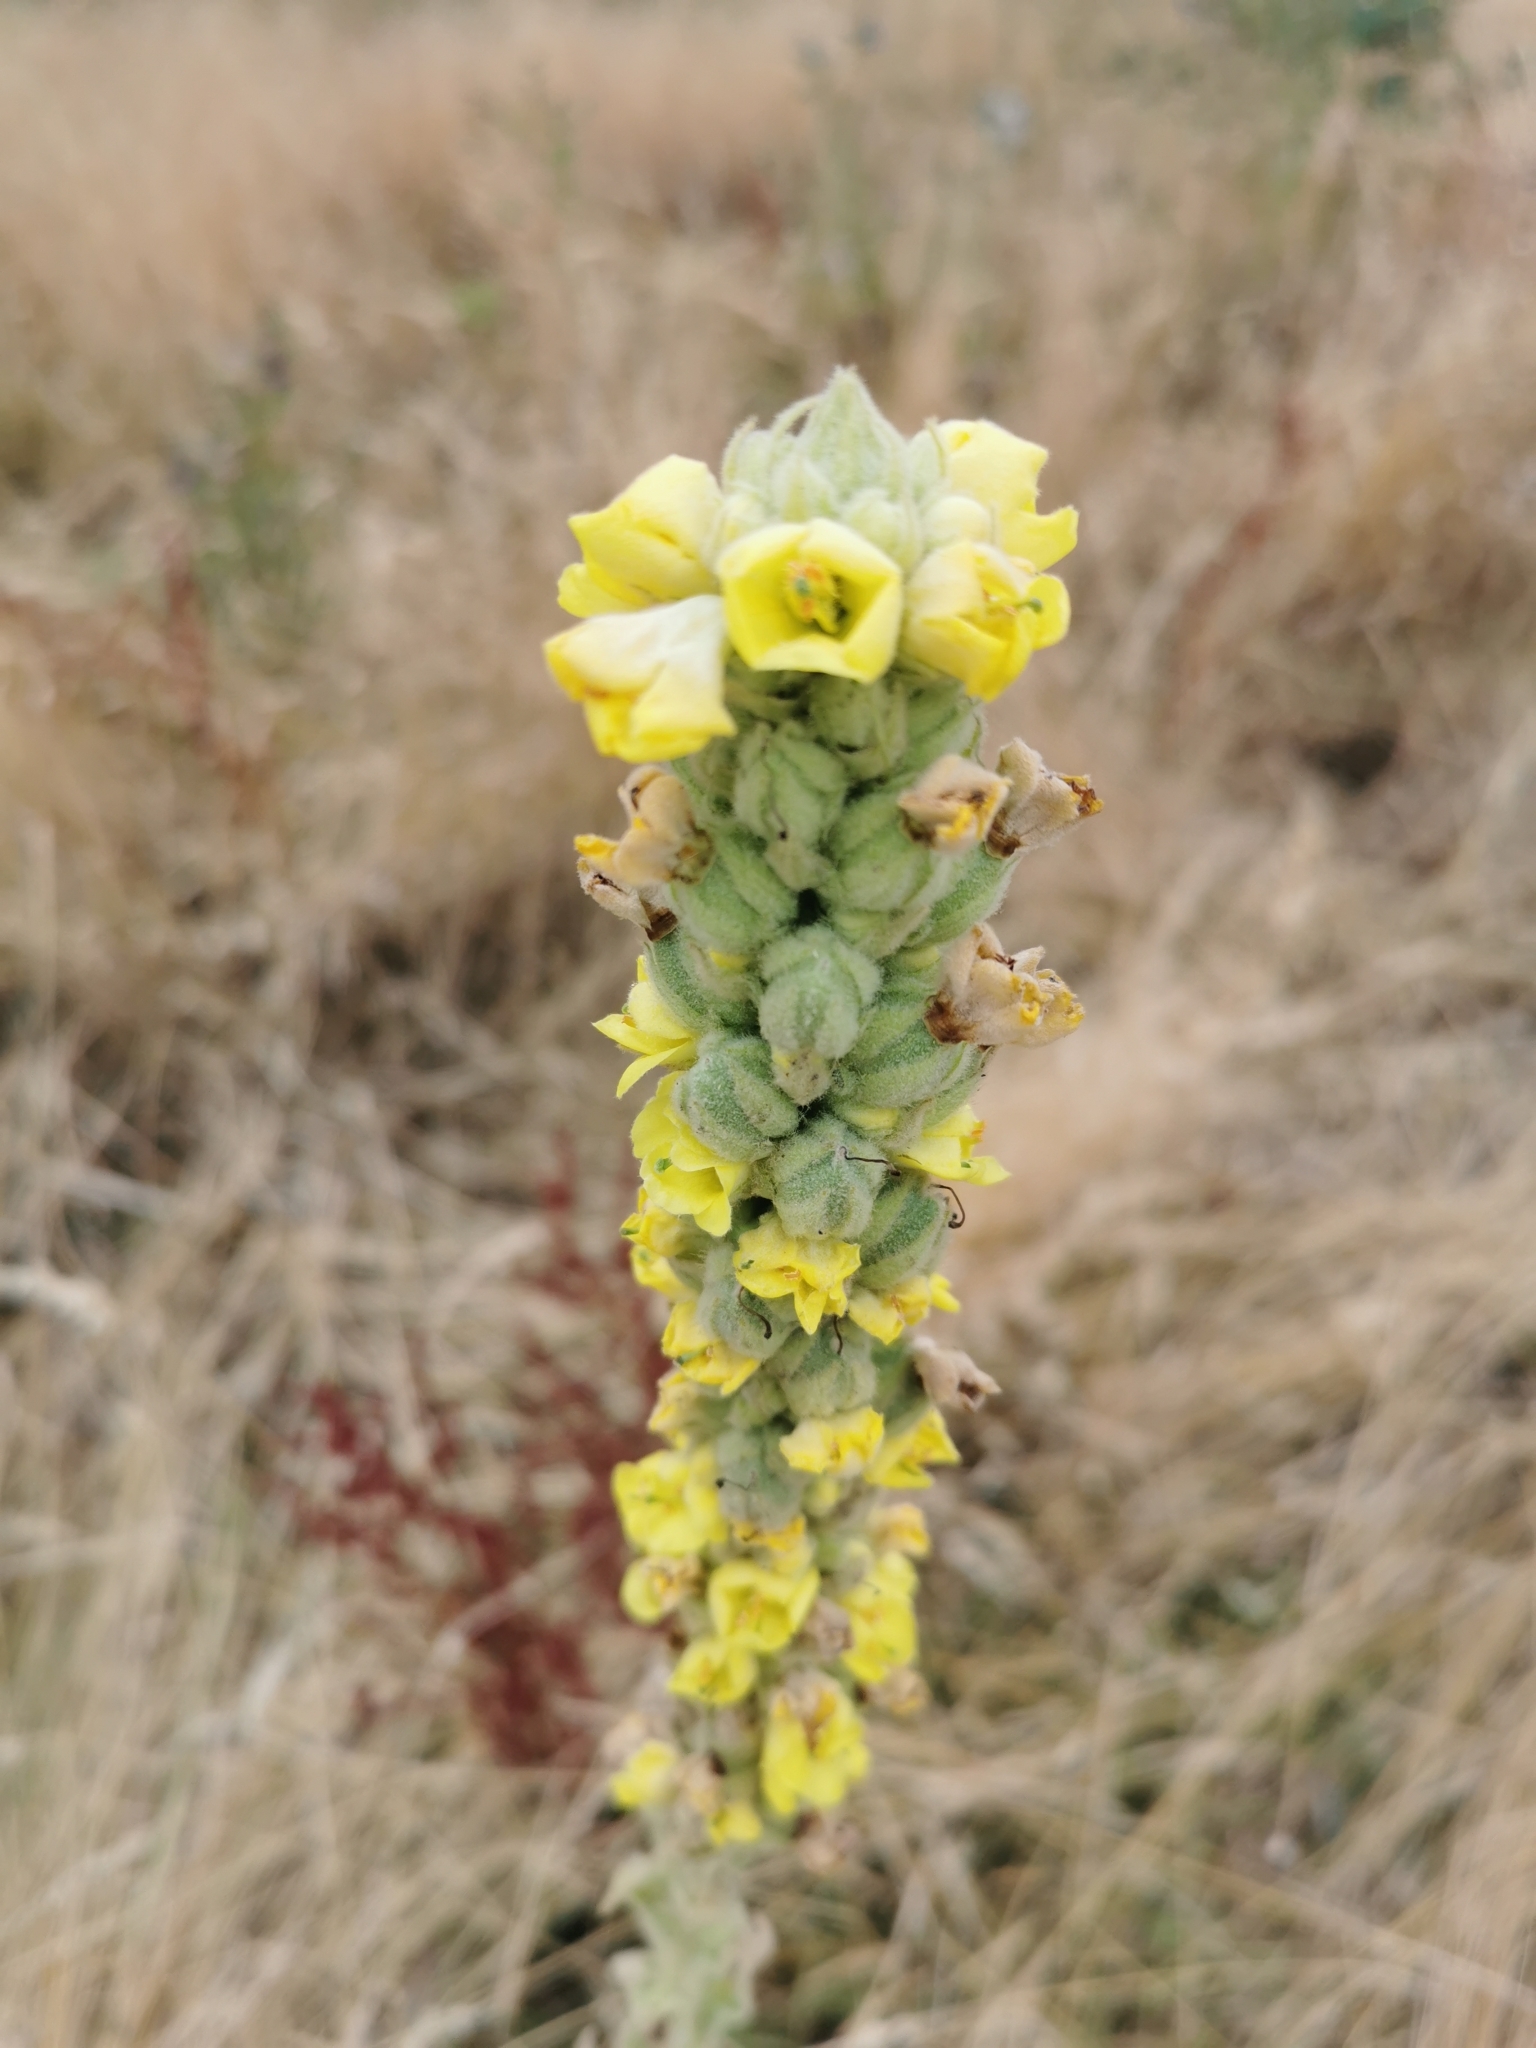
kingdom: Plantae
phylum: Tracheophyta
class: Magnoliopsida
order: Lamiales
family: Scrophulariaceae
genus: Verbascum
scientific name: Verbascum thapsus
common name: Common mullein
